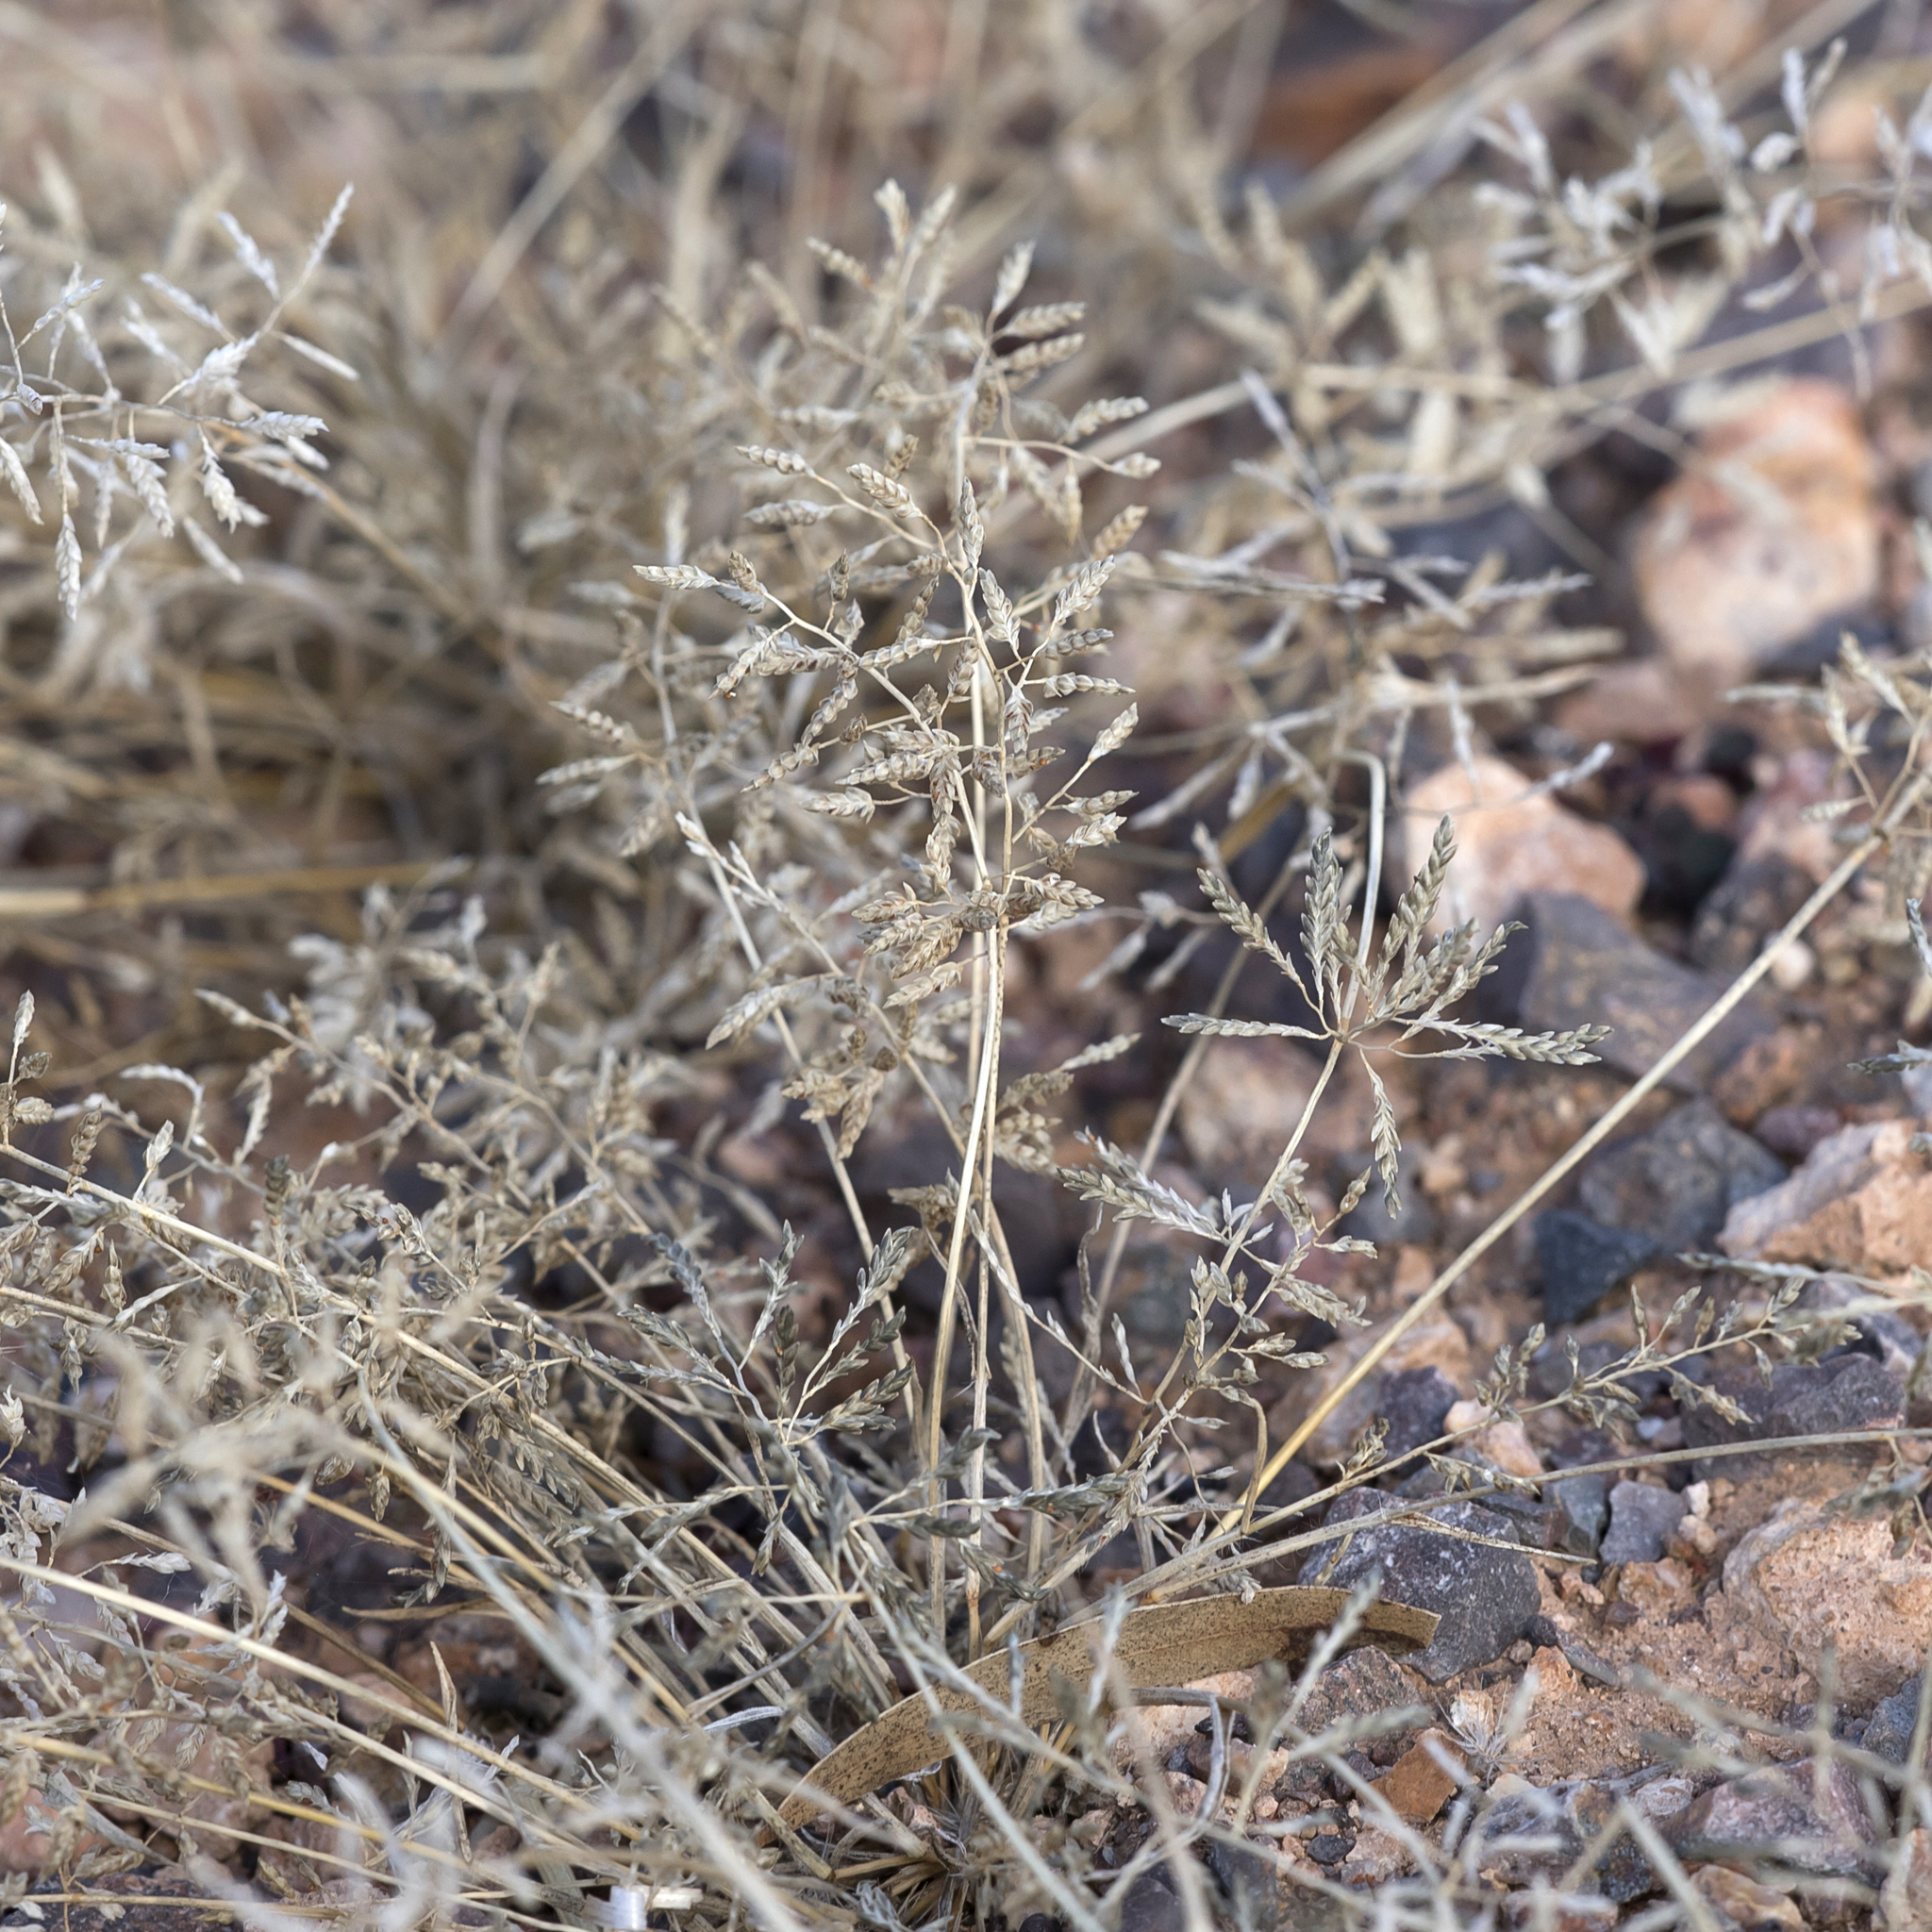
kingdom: Plantae
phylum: Tracheophyta
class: Liliopsida
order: Poales
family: Poaceae
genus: Eragrostis
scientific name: Eragrostis minor
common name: Small love-grass
